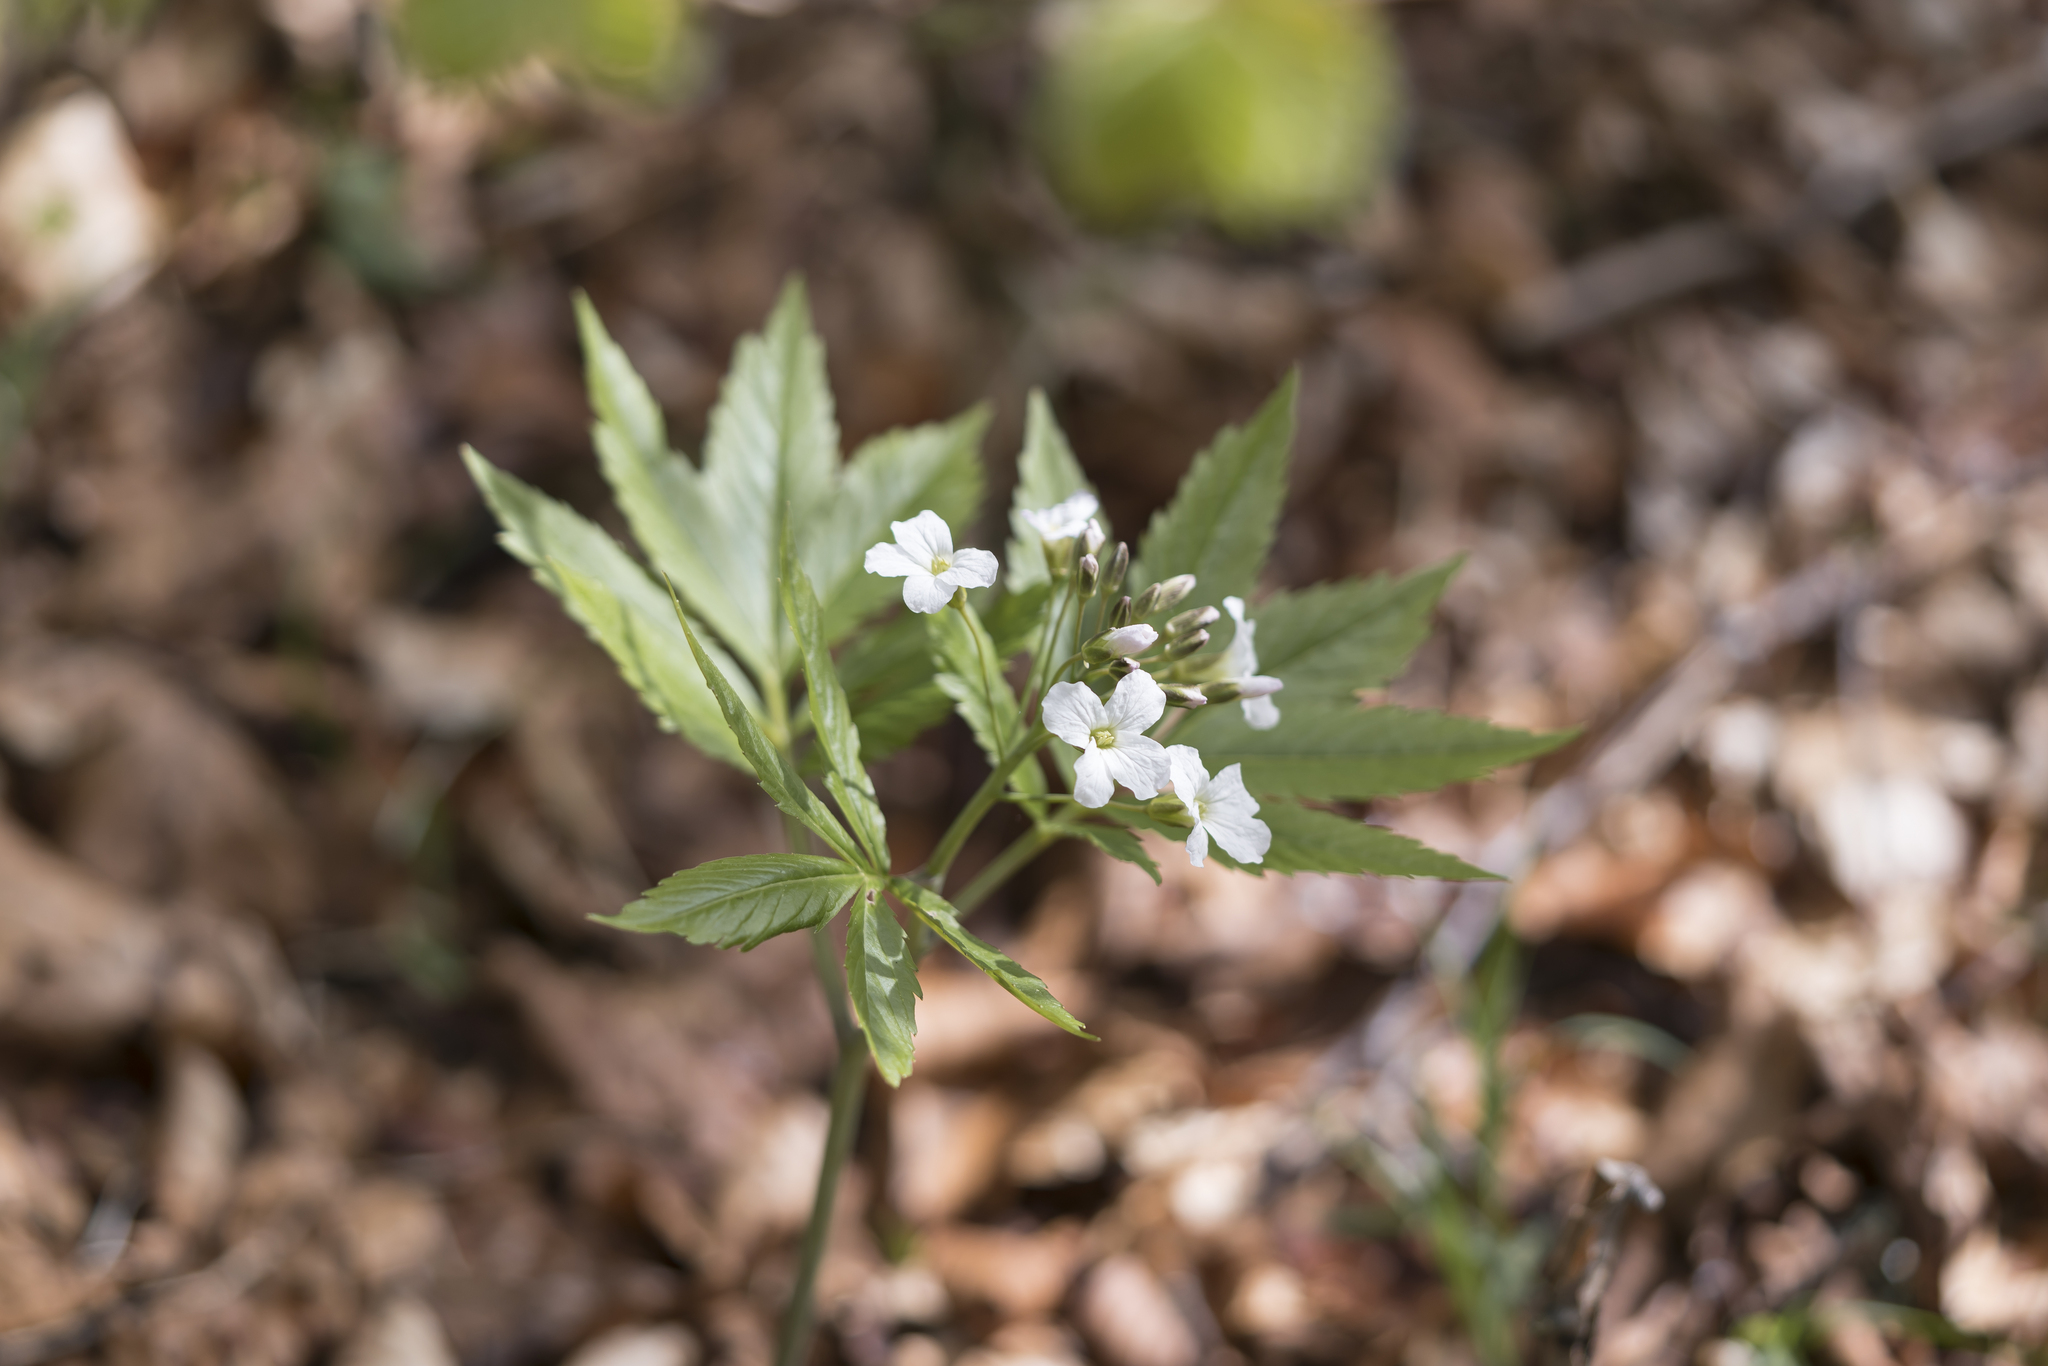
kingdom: Plantae
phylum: Tracheophyta
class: Magnoliopsida
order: Brassicales
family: Brassicaceae
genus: Cardamine
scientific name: Cardamine heptaphylla
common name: Pinnate coralroot
